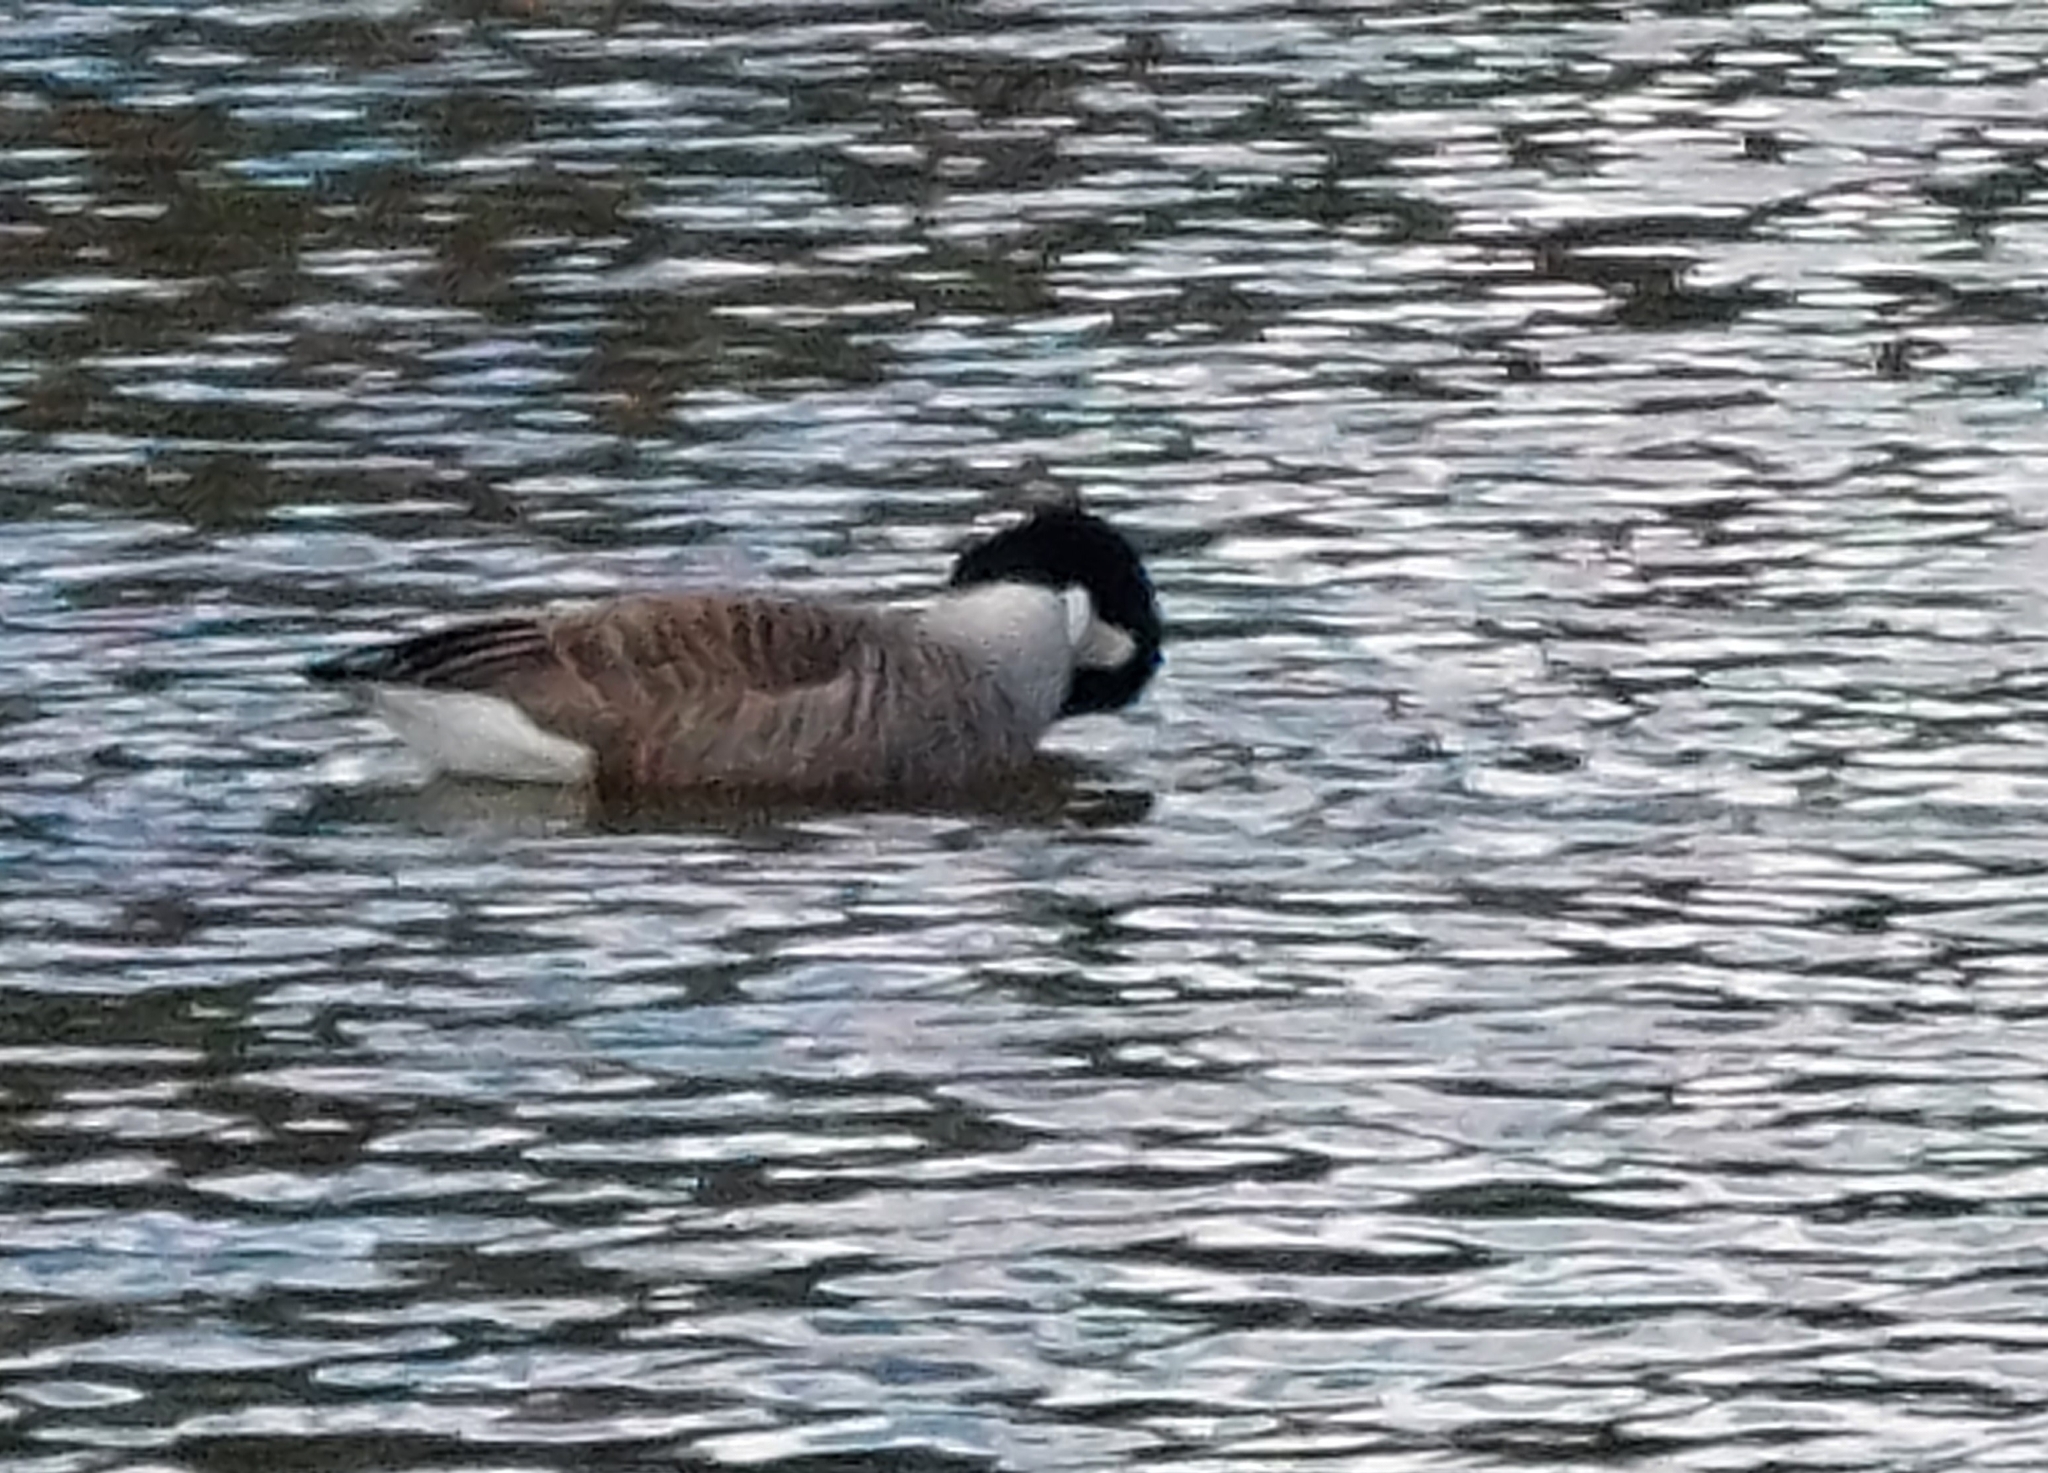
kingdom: Animalia
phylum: Chordata
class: Aves
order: Anseriformes
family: Anatidae
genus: Branta
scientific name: Branta canadensis
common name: Canada goose
